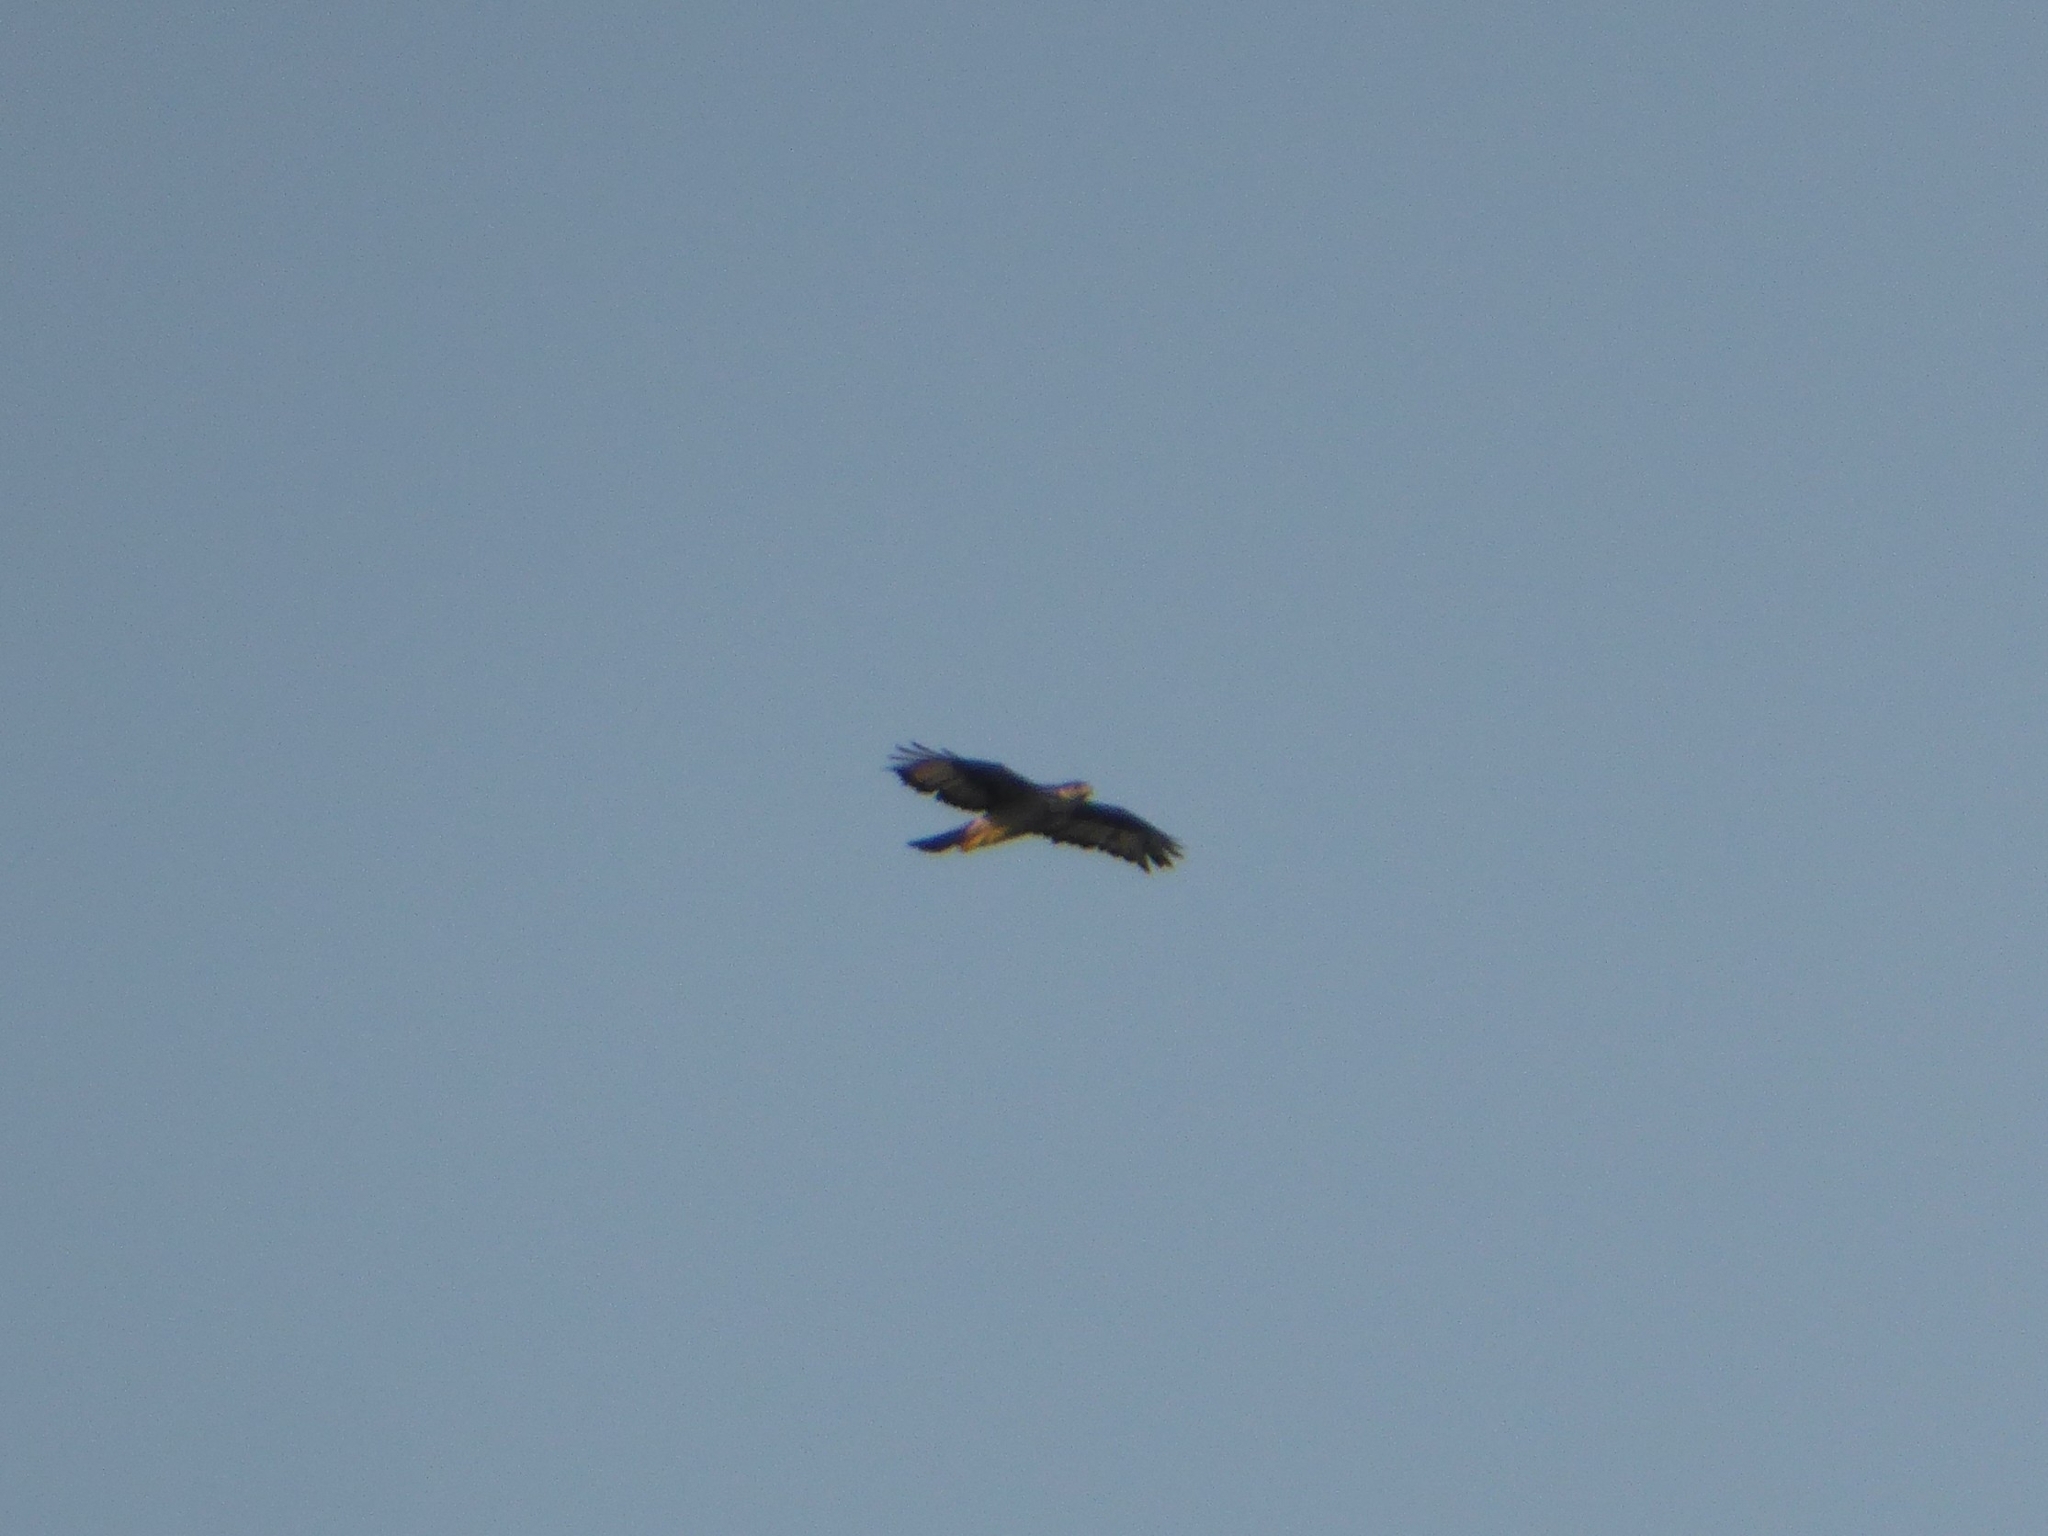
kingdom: Animalia
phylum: Chordata
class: Aves
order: Accipitriformes
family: Accipitridae
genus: Aquila
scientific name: Aquila spilogaster
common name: African hawk-eagle
